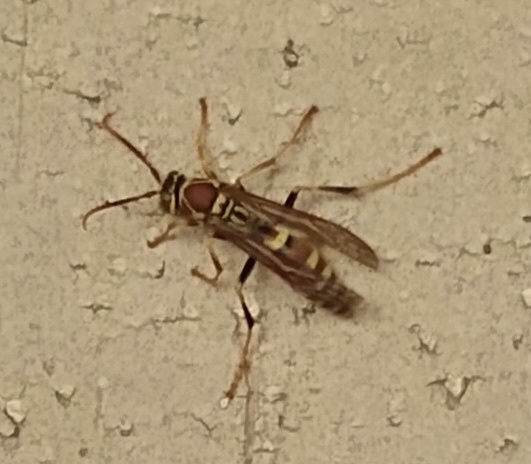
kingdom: Animalia
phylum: Arthropoda
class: Insecta
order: Hymenoptera
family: Eumenidae
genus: Polistes
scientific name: Polistes exclamans
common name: Paper wasp
